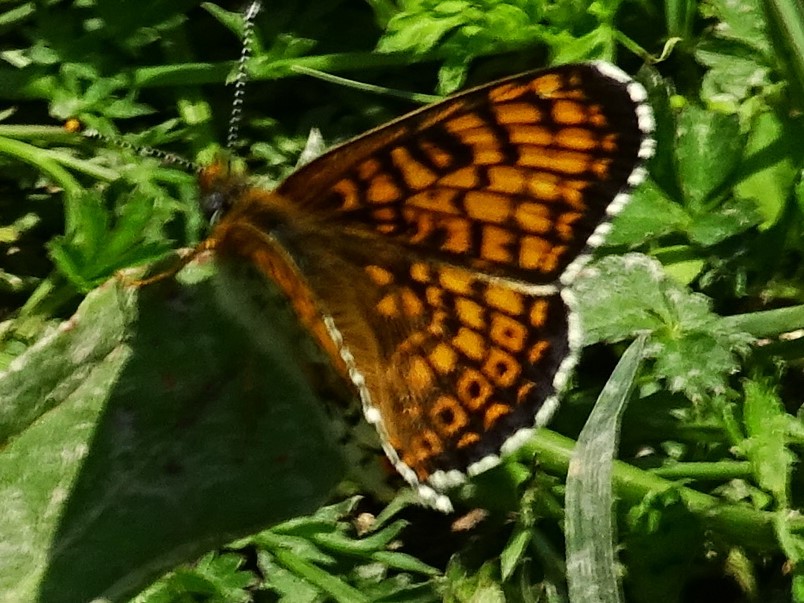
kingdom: Animalia
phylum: Arthropoda
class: Insecta
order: Lepidoptera
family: Nymphalidae
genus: Melitaea
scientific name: Melitaea cinxia
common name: Glanville fritillary
